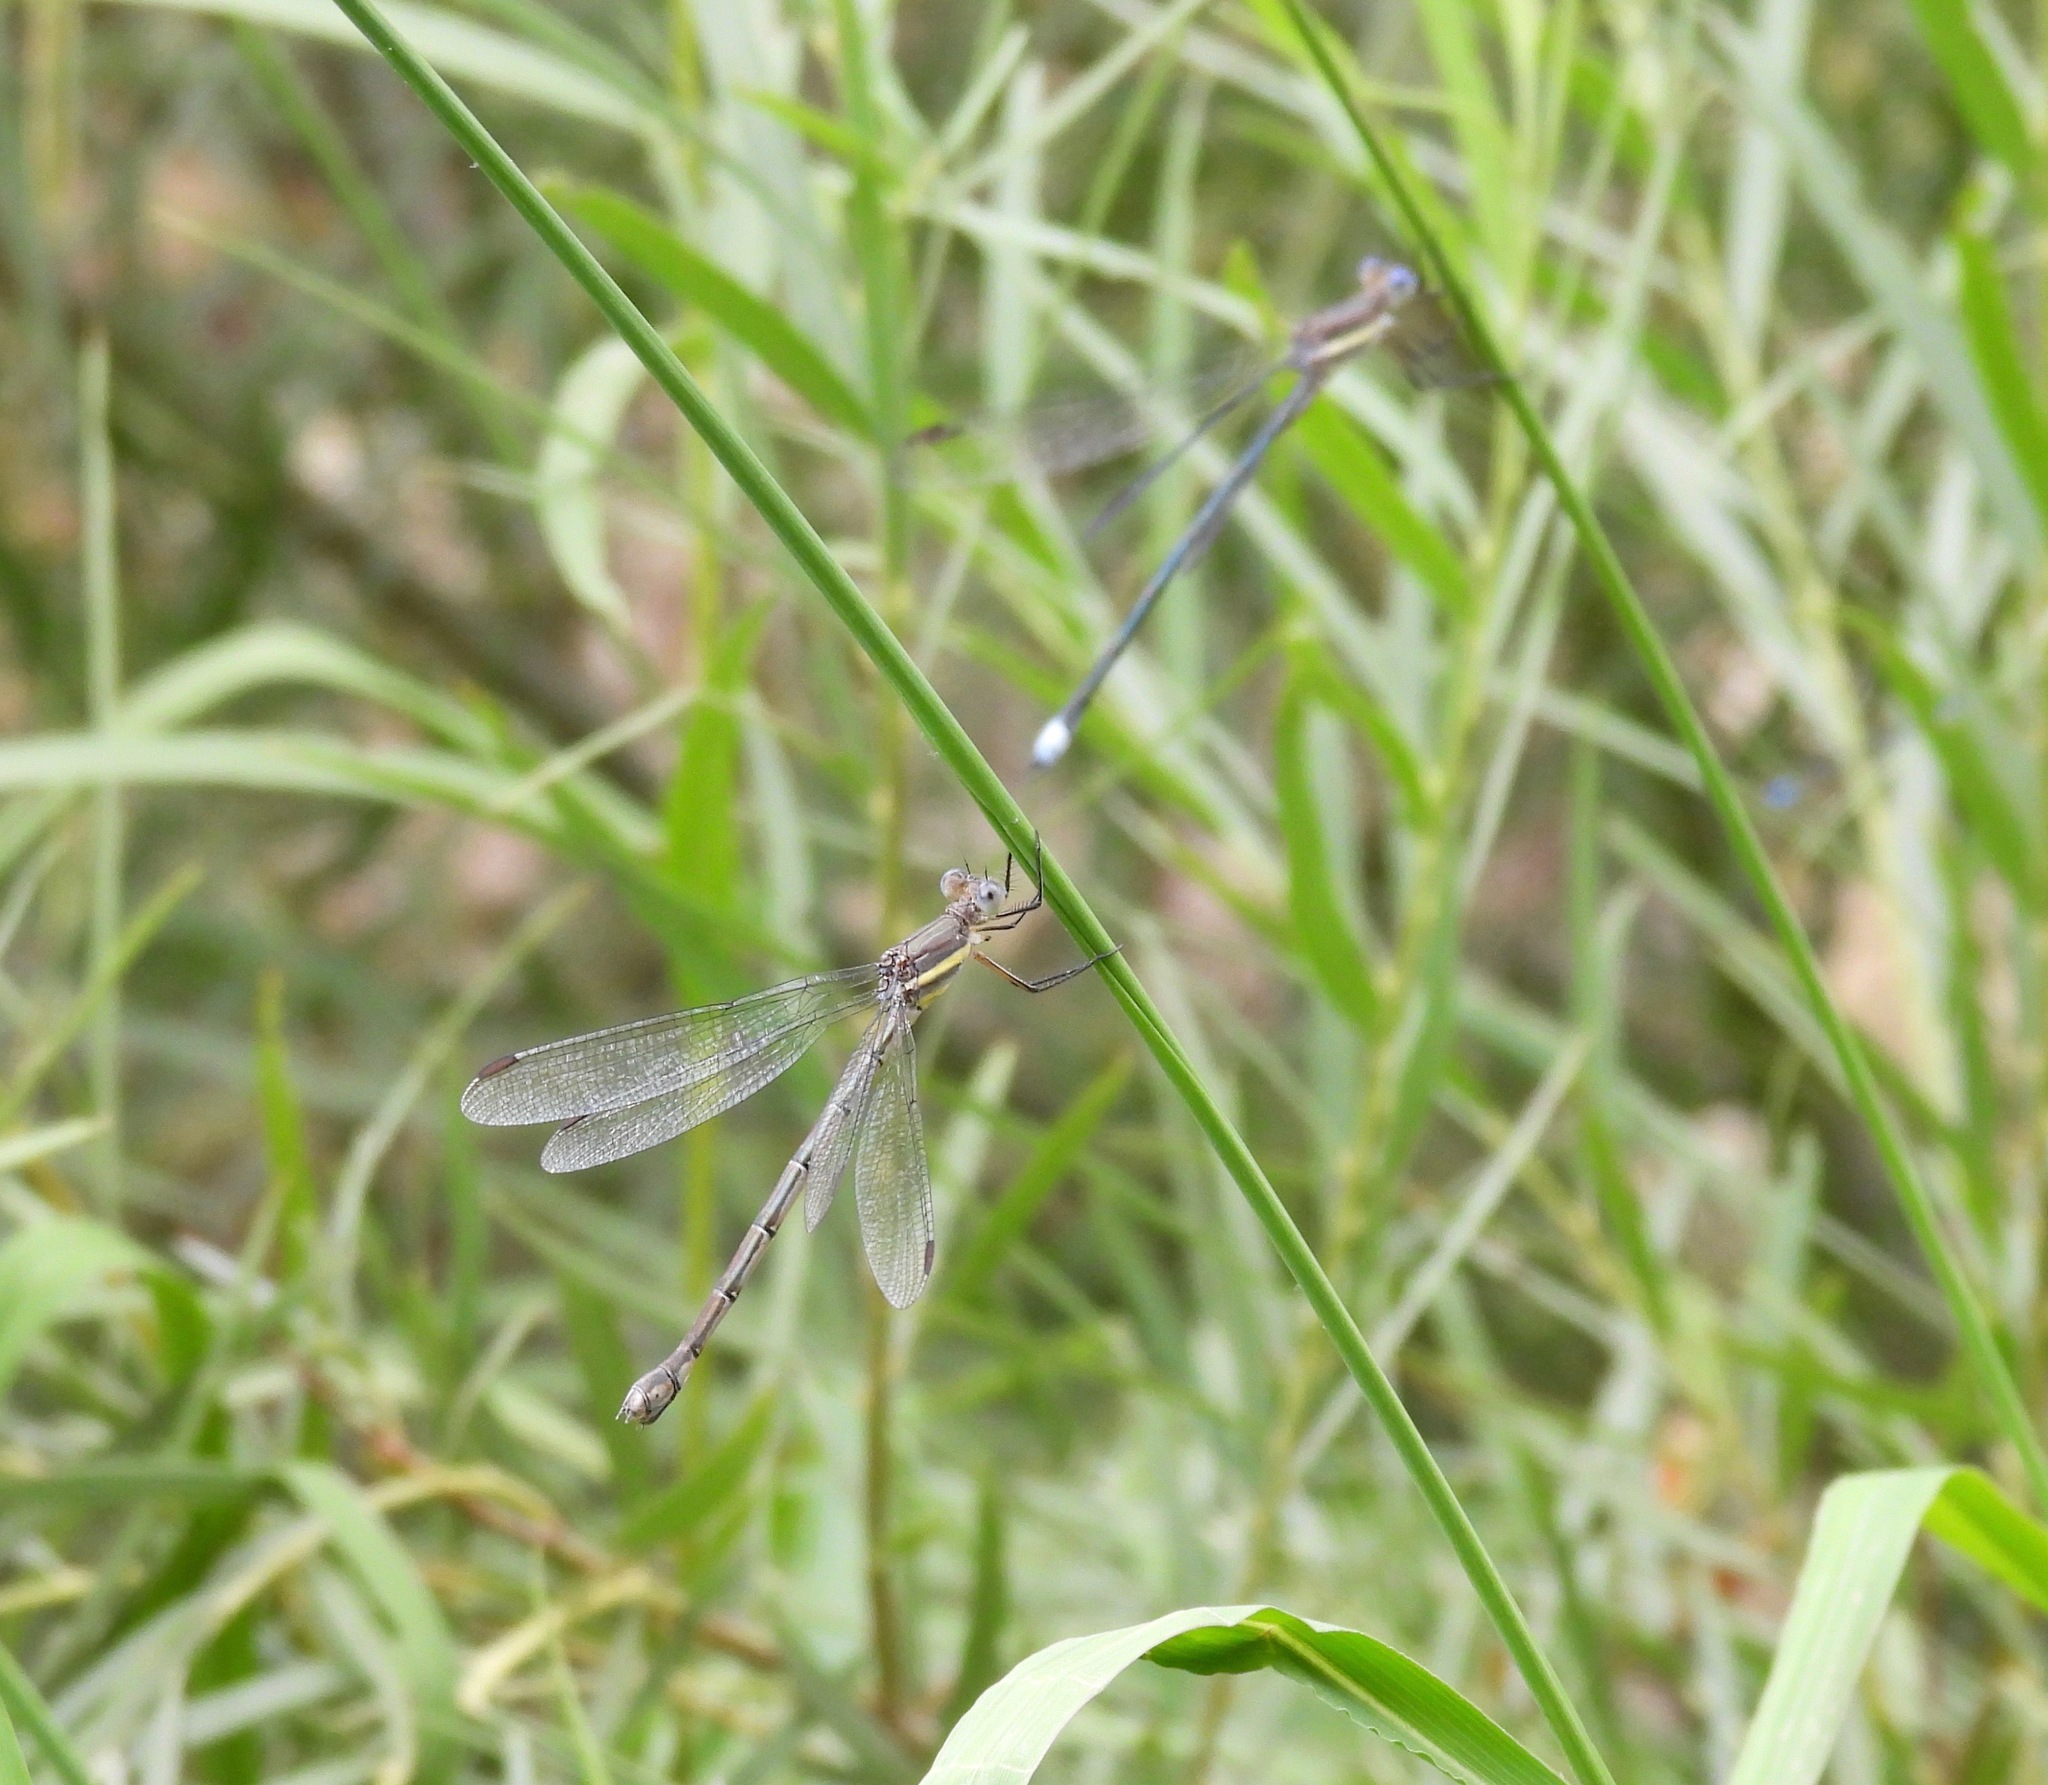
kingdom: Animalia
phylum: Arthropoda
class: Insecta
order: Odonata
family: Lestidae
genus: Archilestes
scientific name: Archilestes grandis
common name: Great spreadwing
